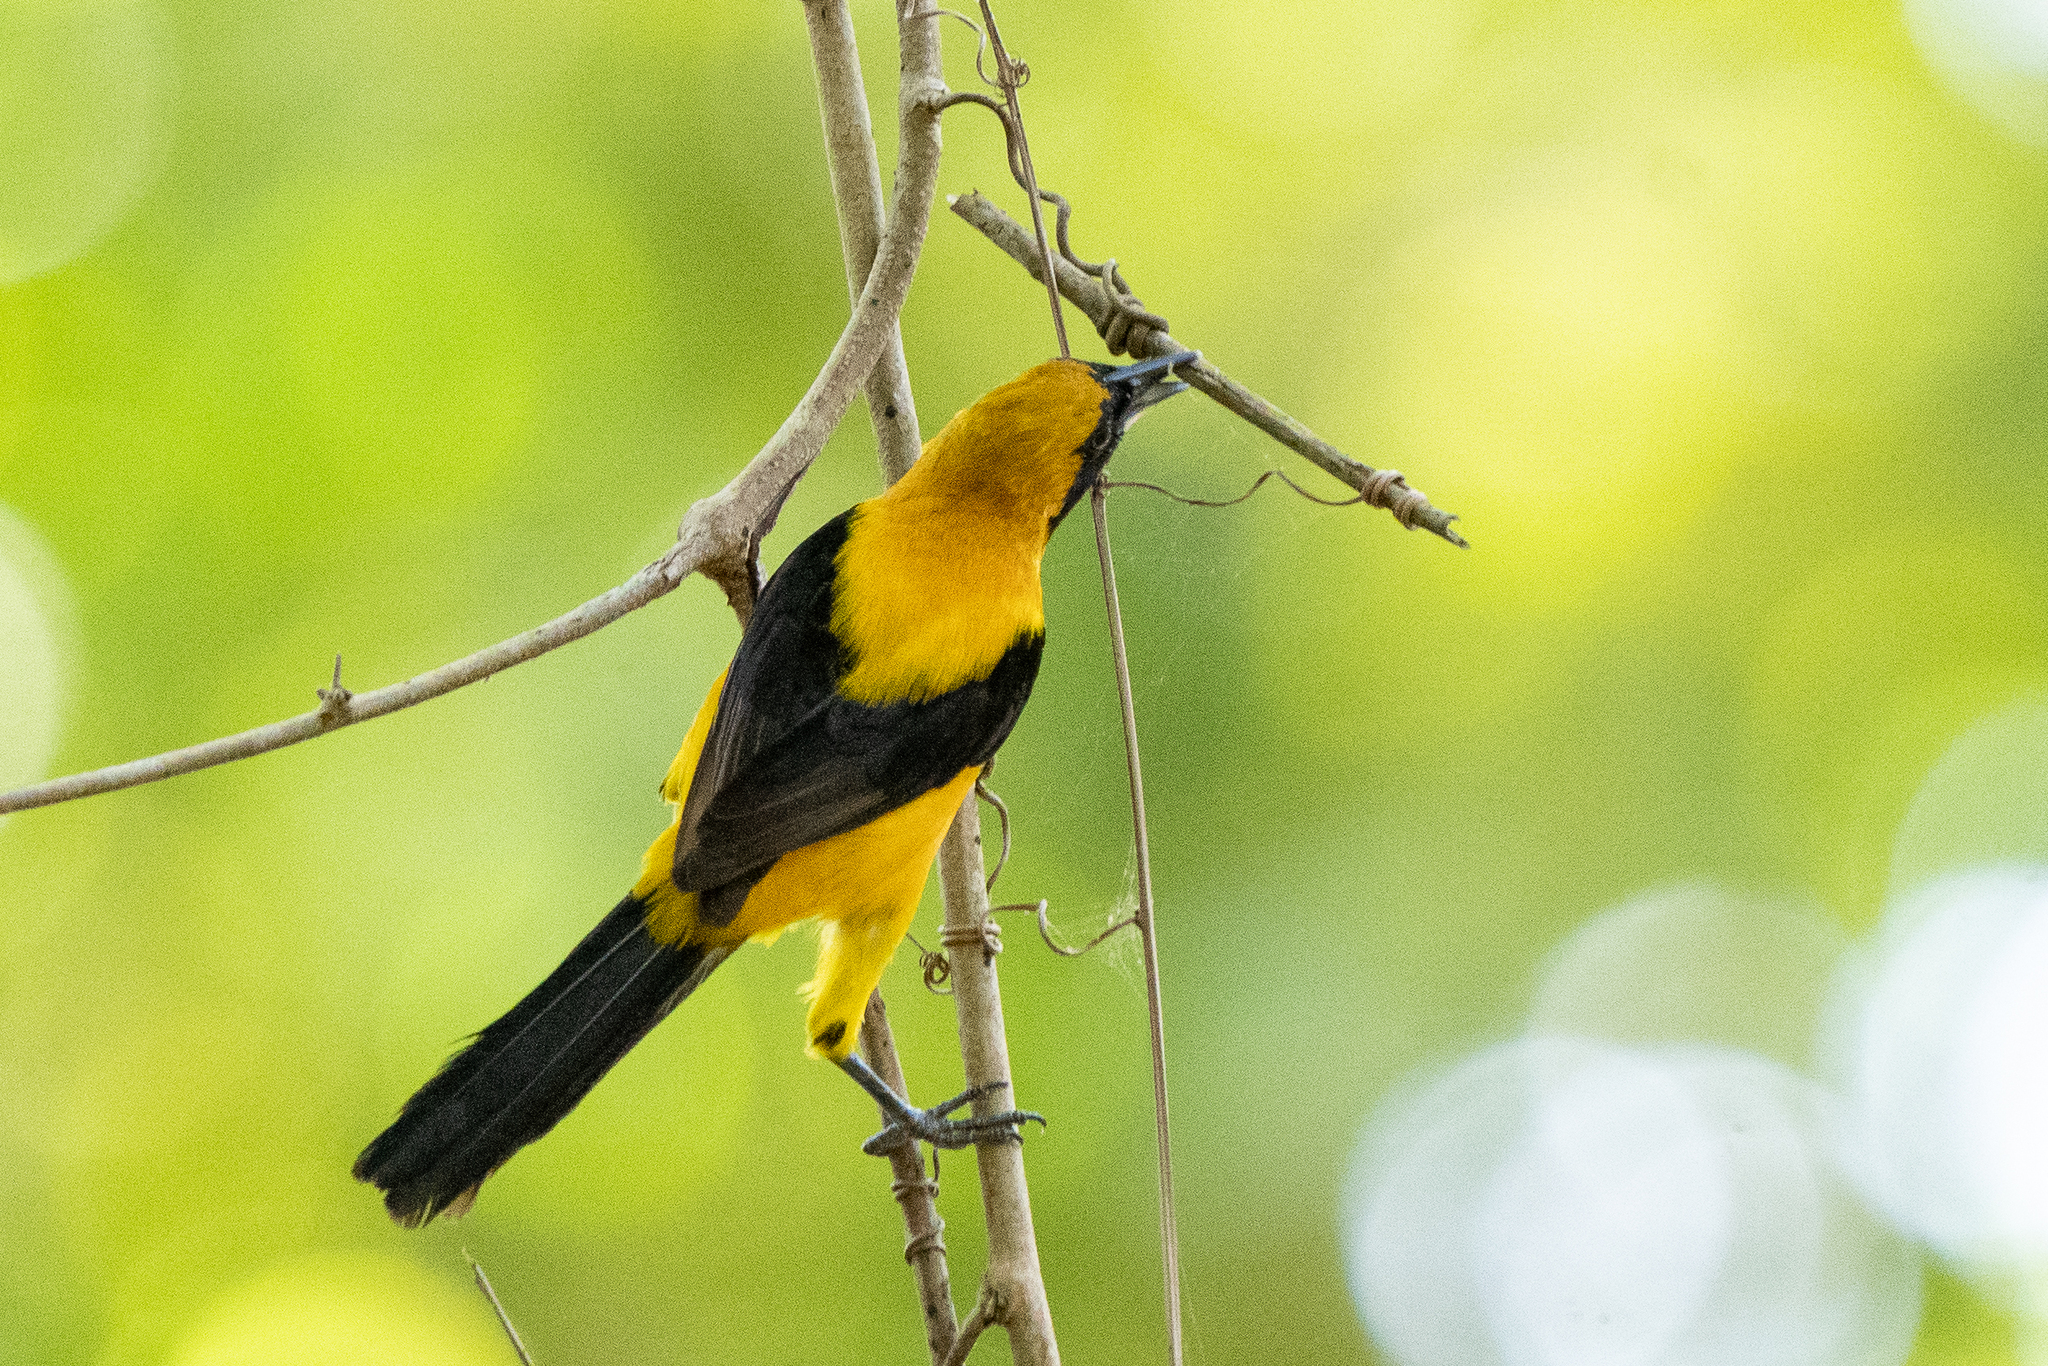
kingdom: Animalia
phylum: Chordata
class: Aves
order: Passeriformes
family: Icteridae
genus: Icterus
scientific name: Icterus chrysater
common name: Yellow-backed oriole
